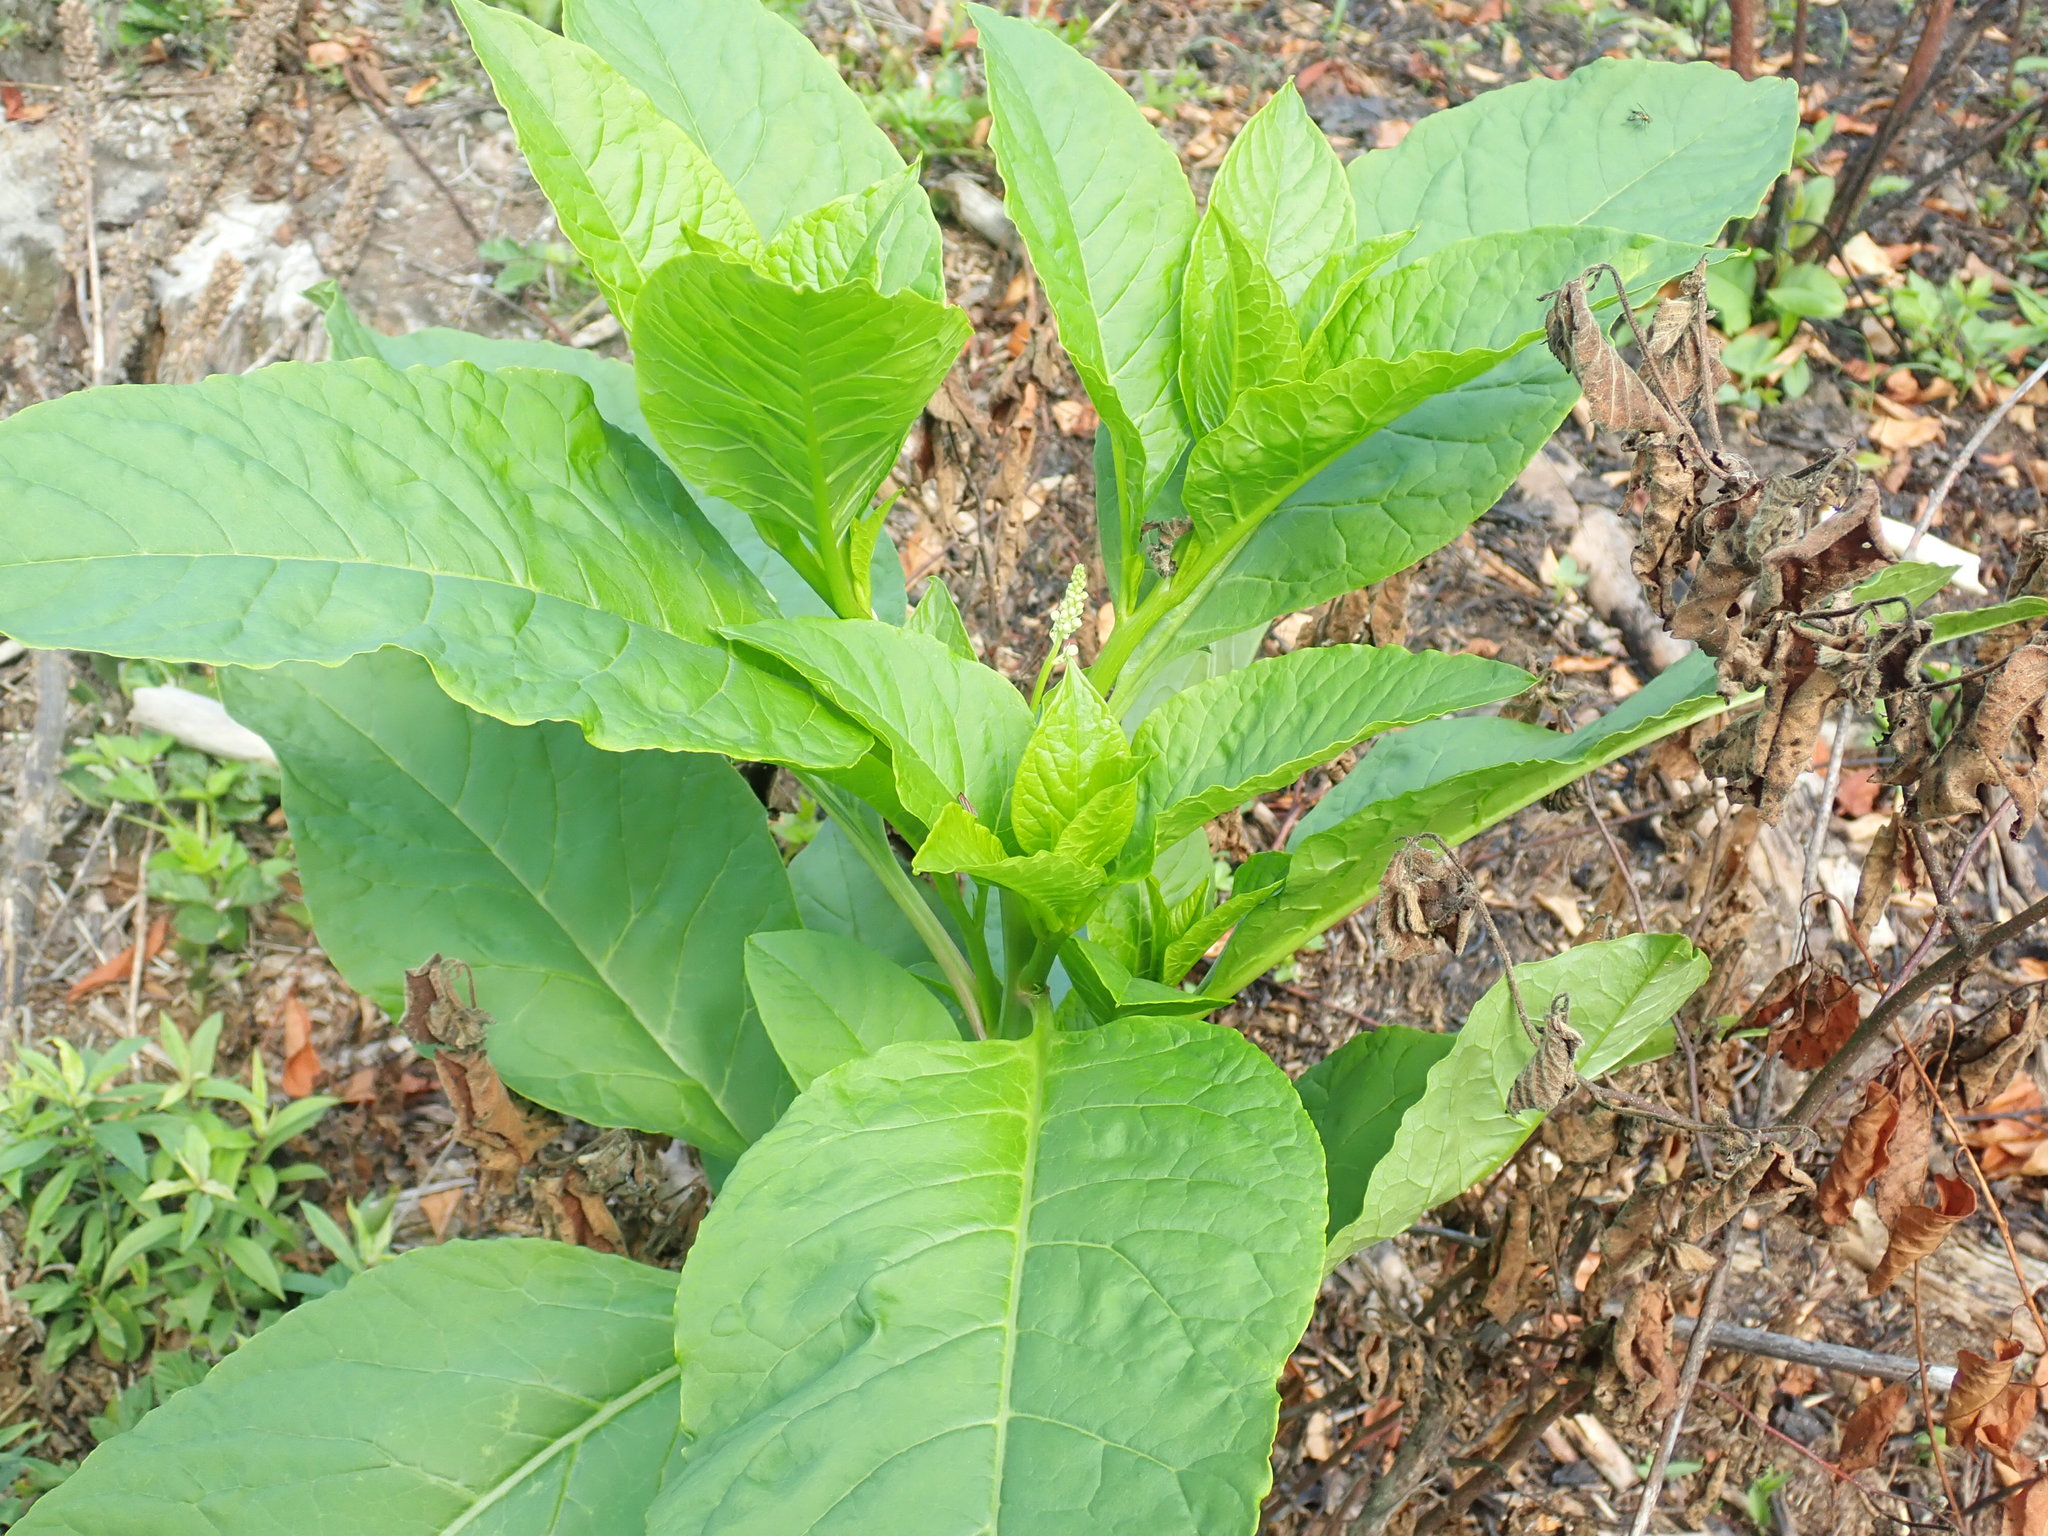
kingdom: Plantae
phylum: Tracheophyta
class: Magnoliopsida
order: Caryophyllales
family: Phytolaccaceae
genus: Phytolacca
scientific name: Phytolacca americana
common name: American pokeweed
